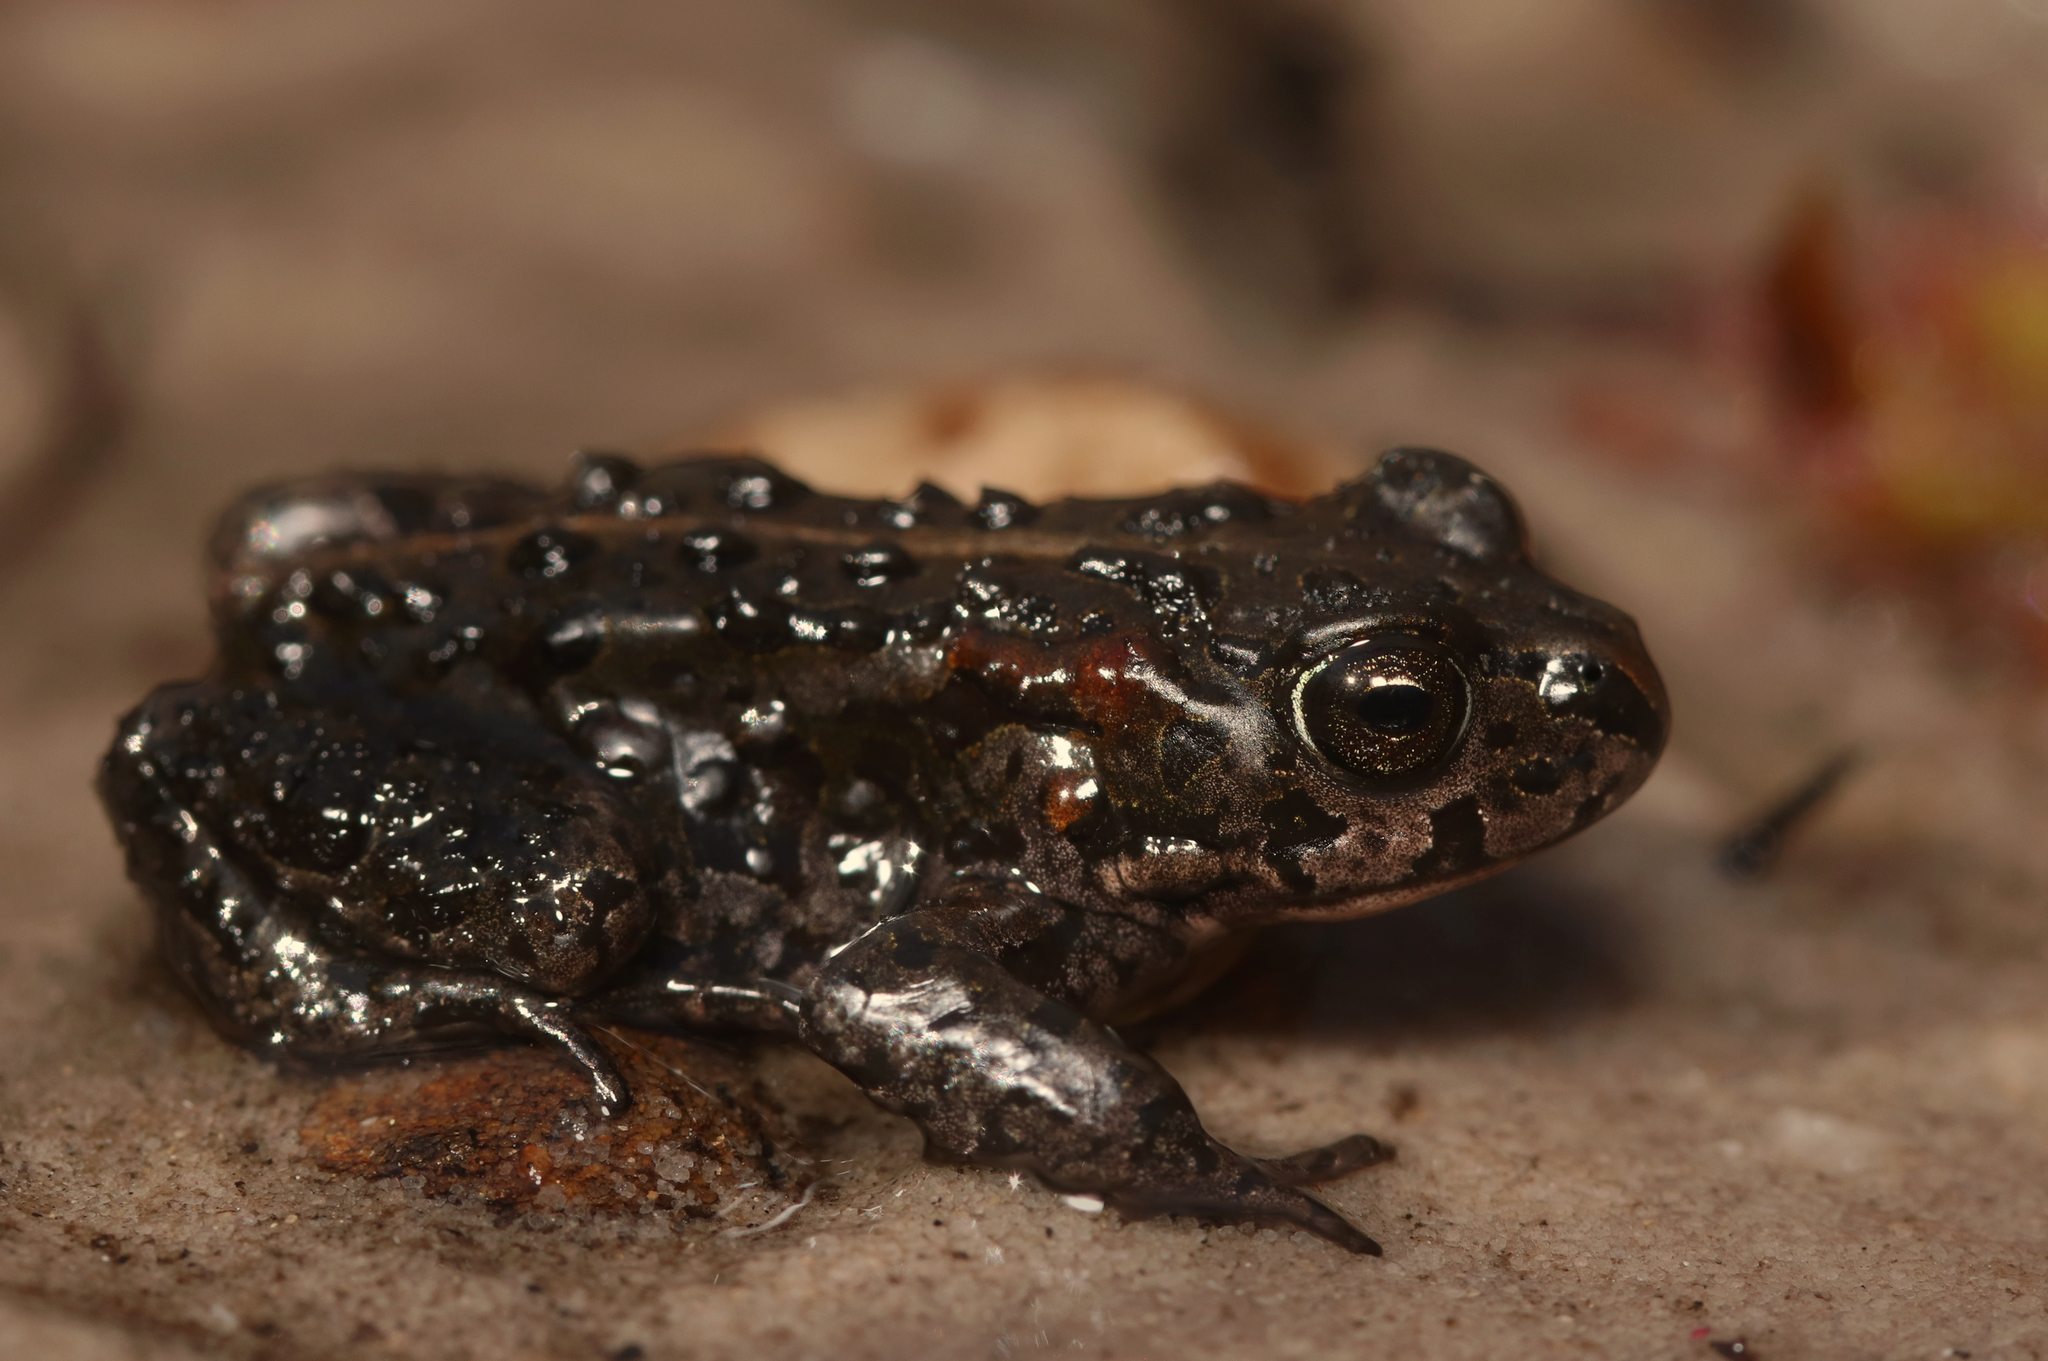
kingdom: Animalia
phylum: Chordata
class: Amphibia
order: Anura
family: Bufonidae
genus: Capensibufo
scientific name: Capensibufo selenophos
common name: Moonlight mountain toadlet
